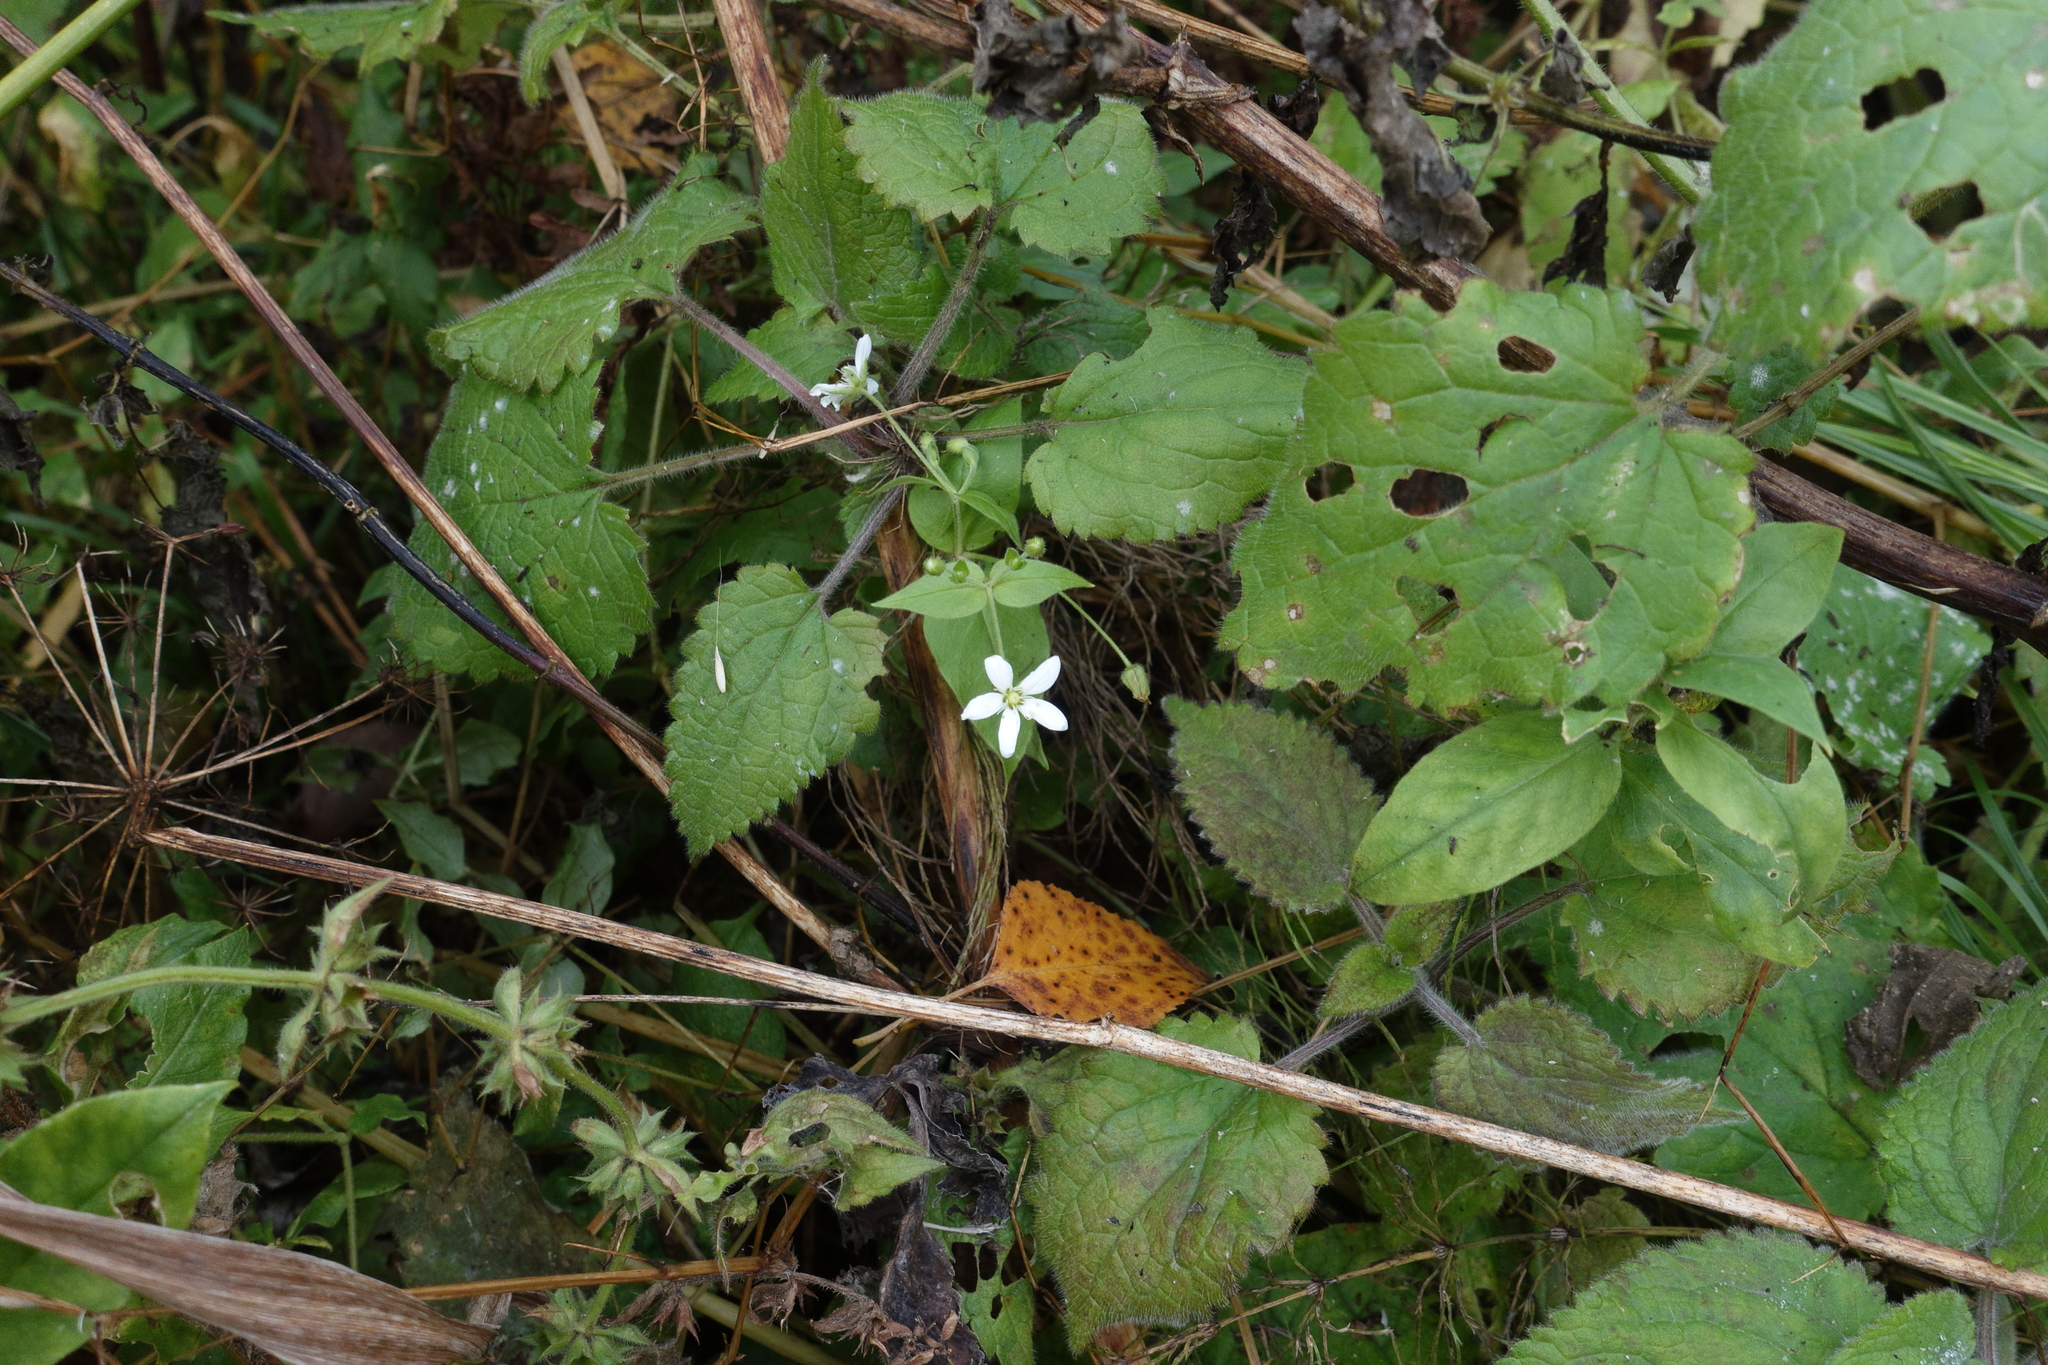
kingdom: Plantae
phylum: Tracheophyta
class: Magnoliopsida
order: Caryophyllales
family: Caryophyllaceae
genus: Stellaria
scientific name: Stellaria bungeana
